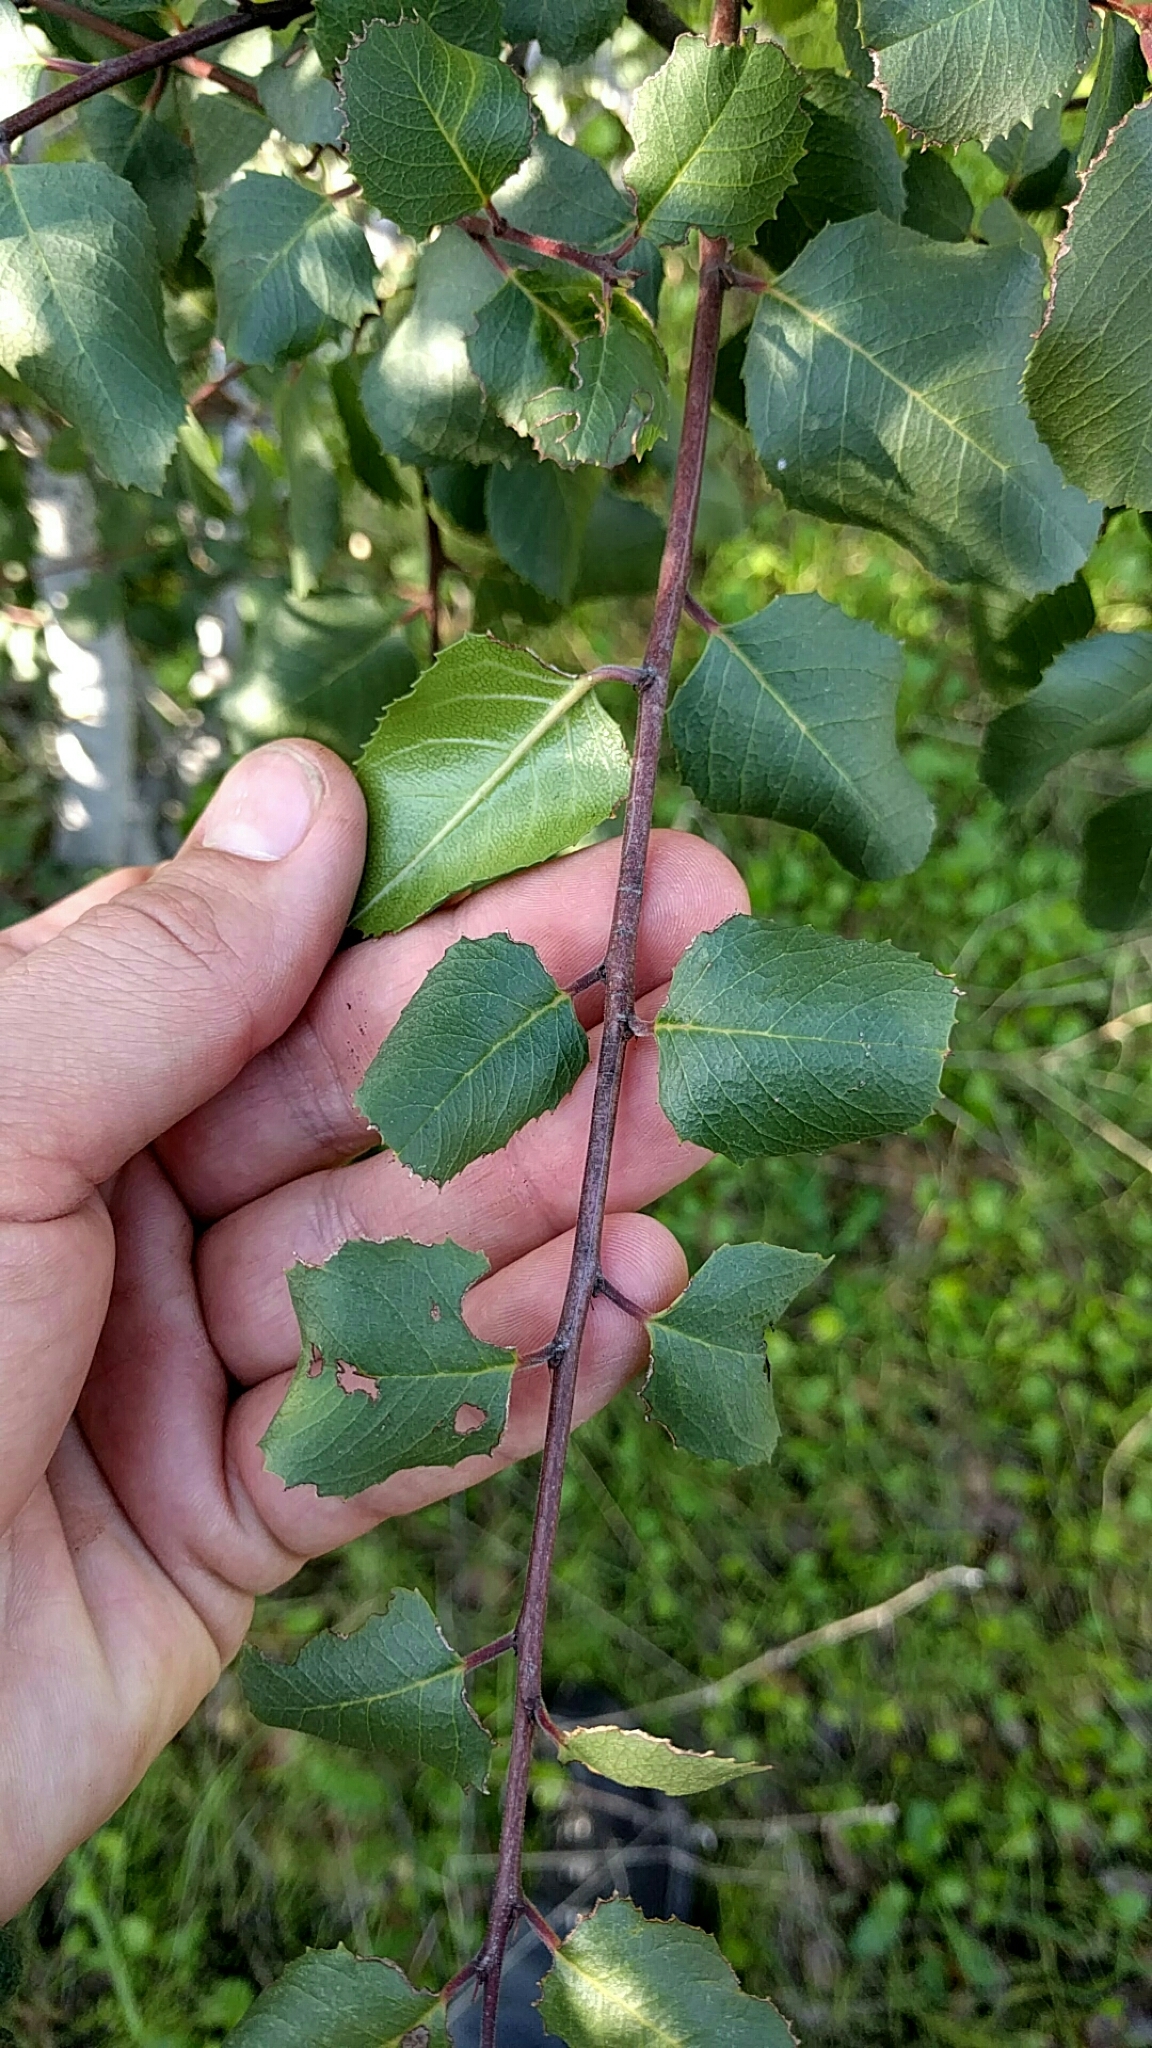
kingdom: Plantae
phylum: Tracheophyta
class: Magnoliopsida
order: Rosales
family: Rhamnaceae
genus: Endotropis
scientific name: Endotropis crocea
